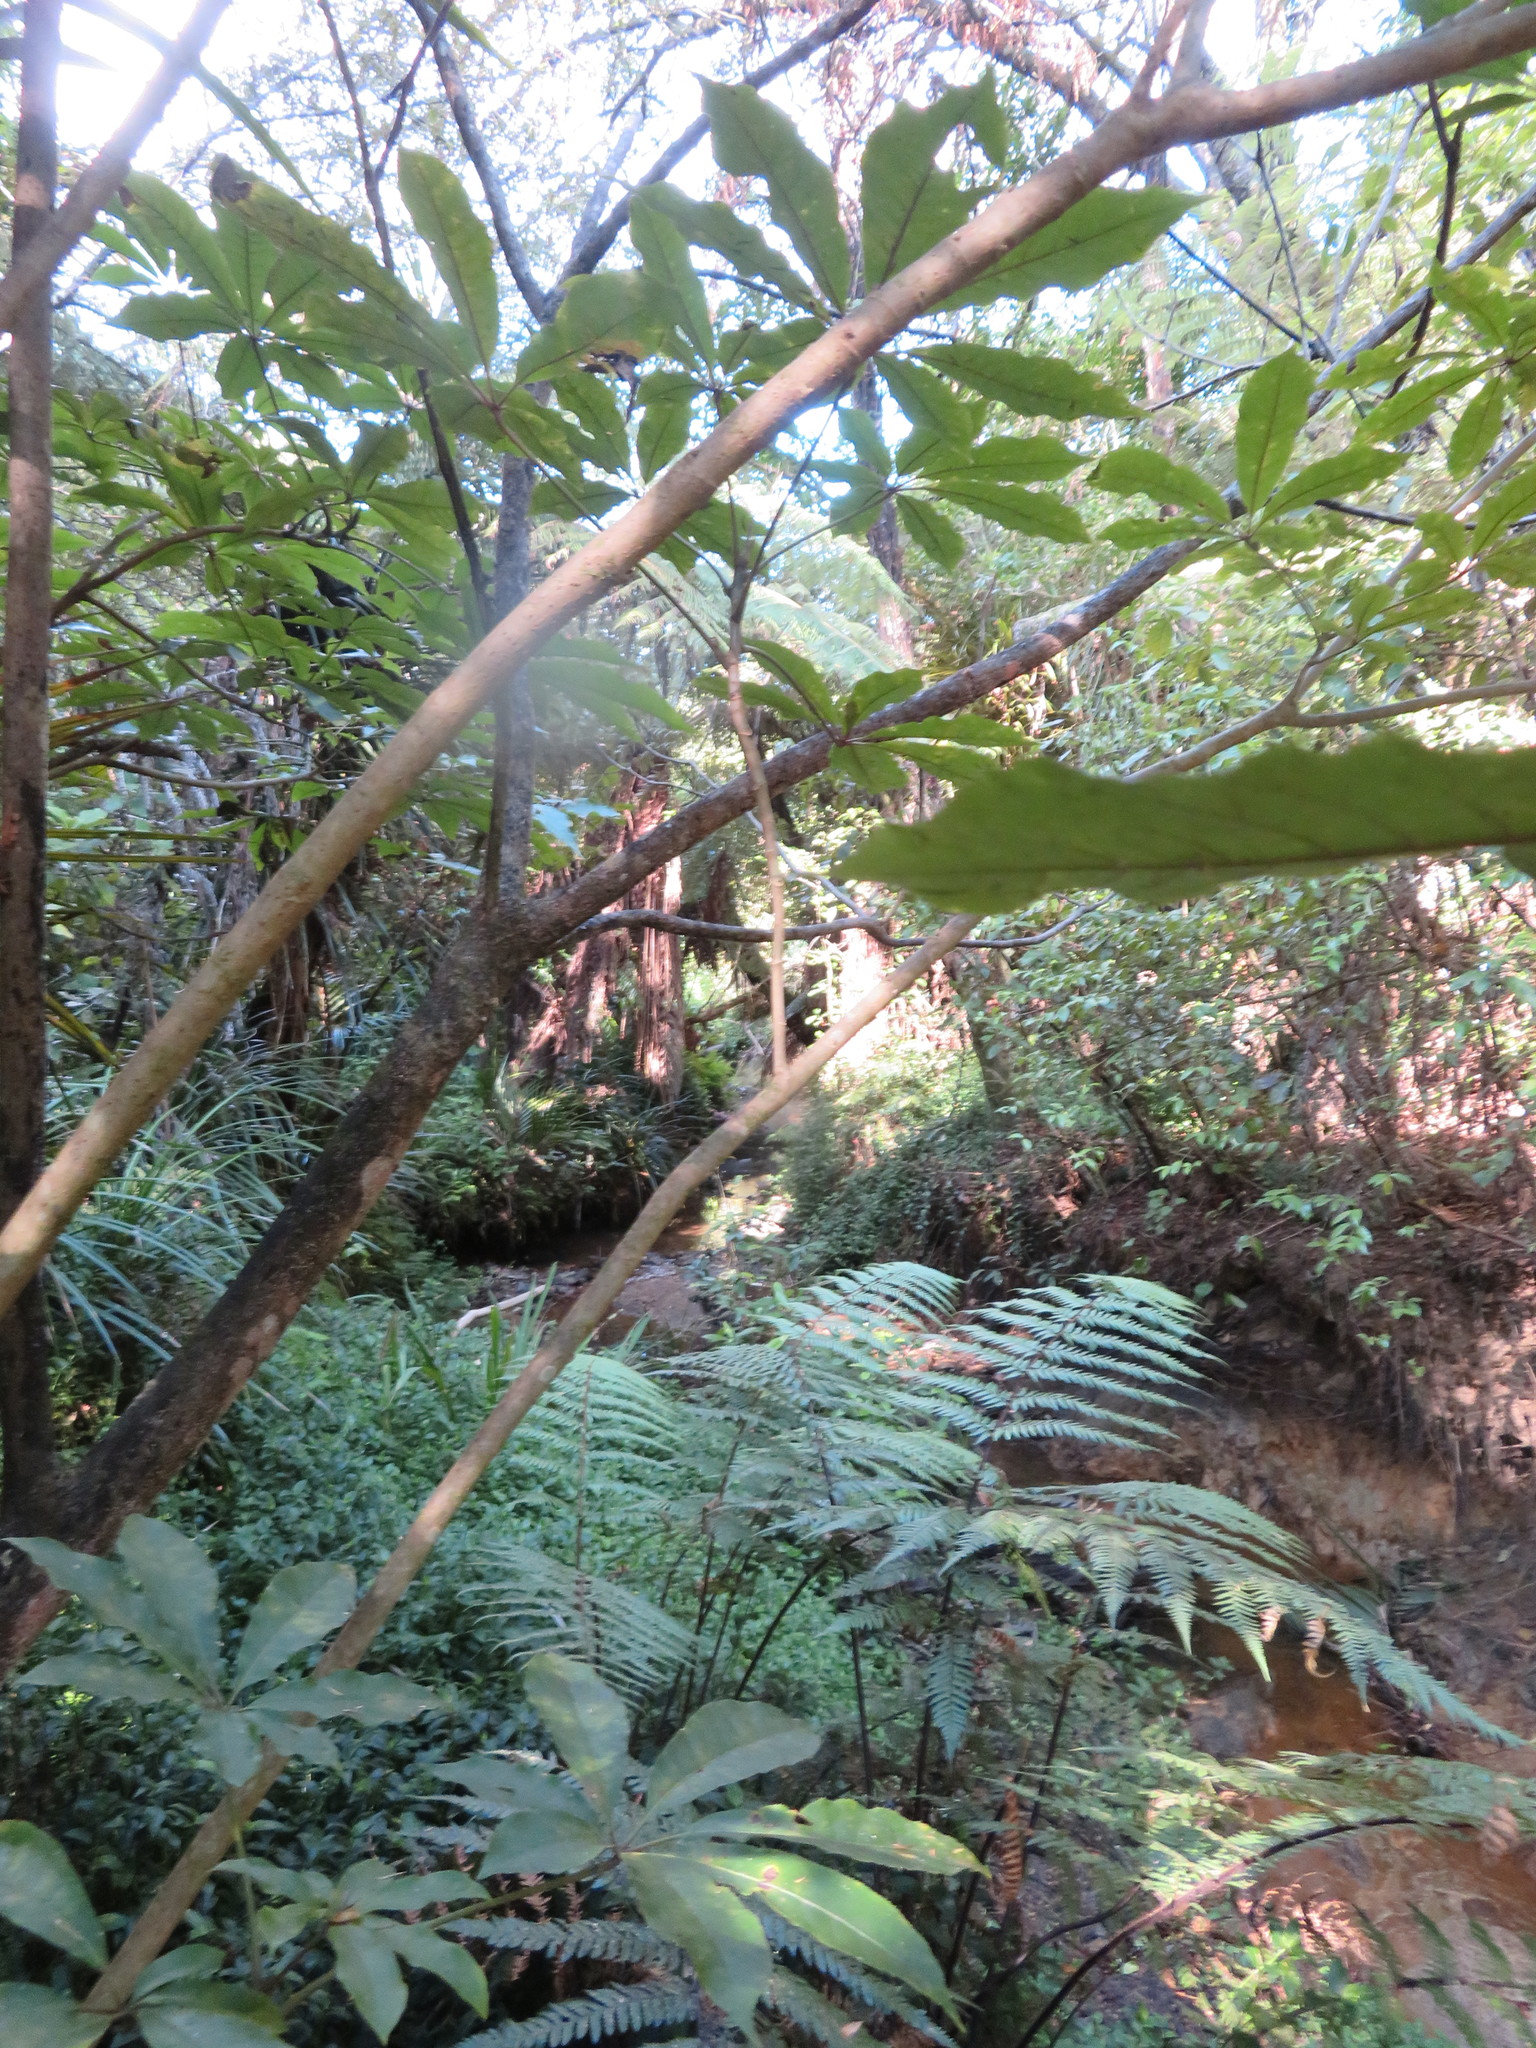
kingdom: Plantae
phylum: Tracheophyta
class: Magnoliopsida
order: Apiales
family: Araliaceae
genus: Schefflera
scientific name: Schefflera digitata
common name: Pate
